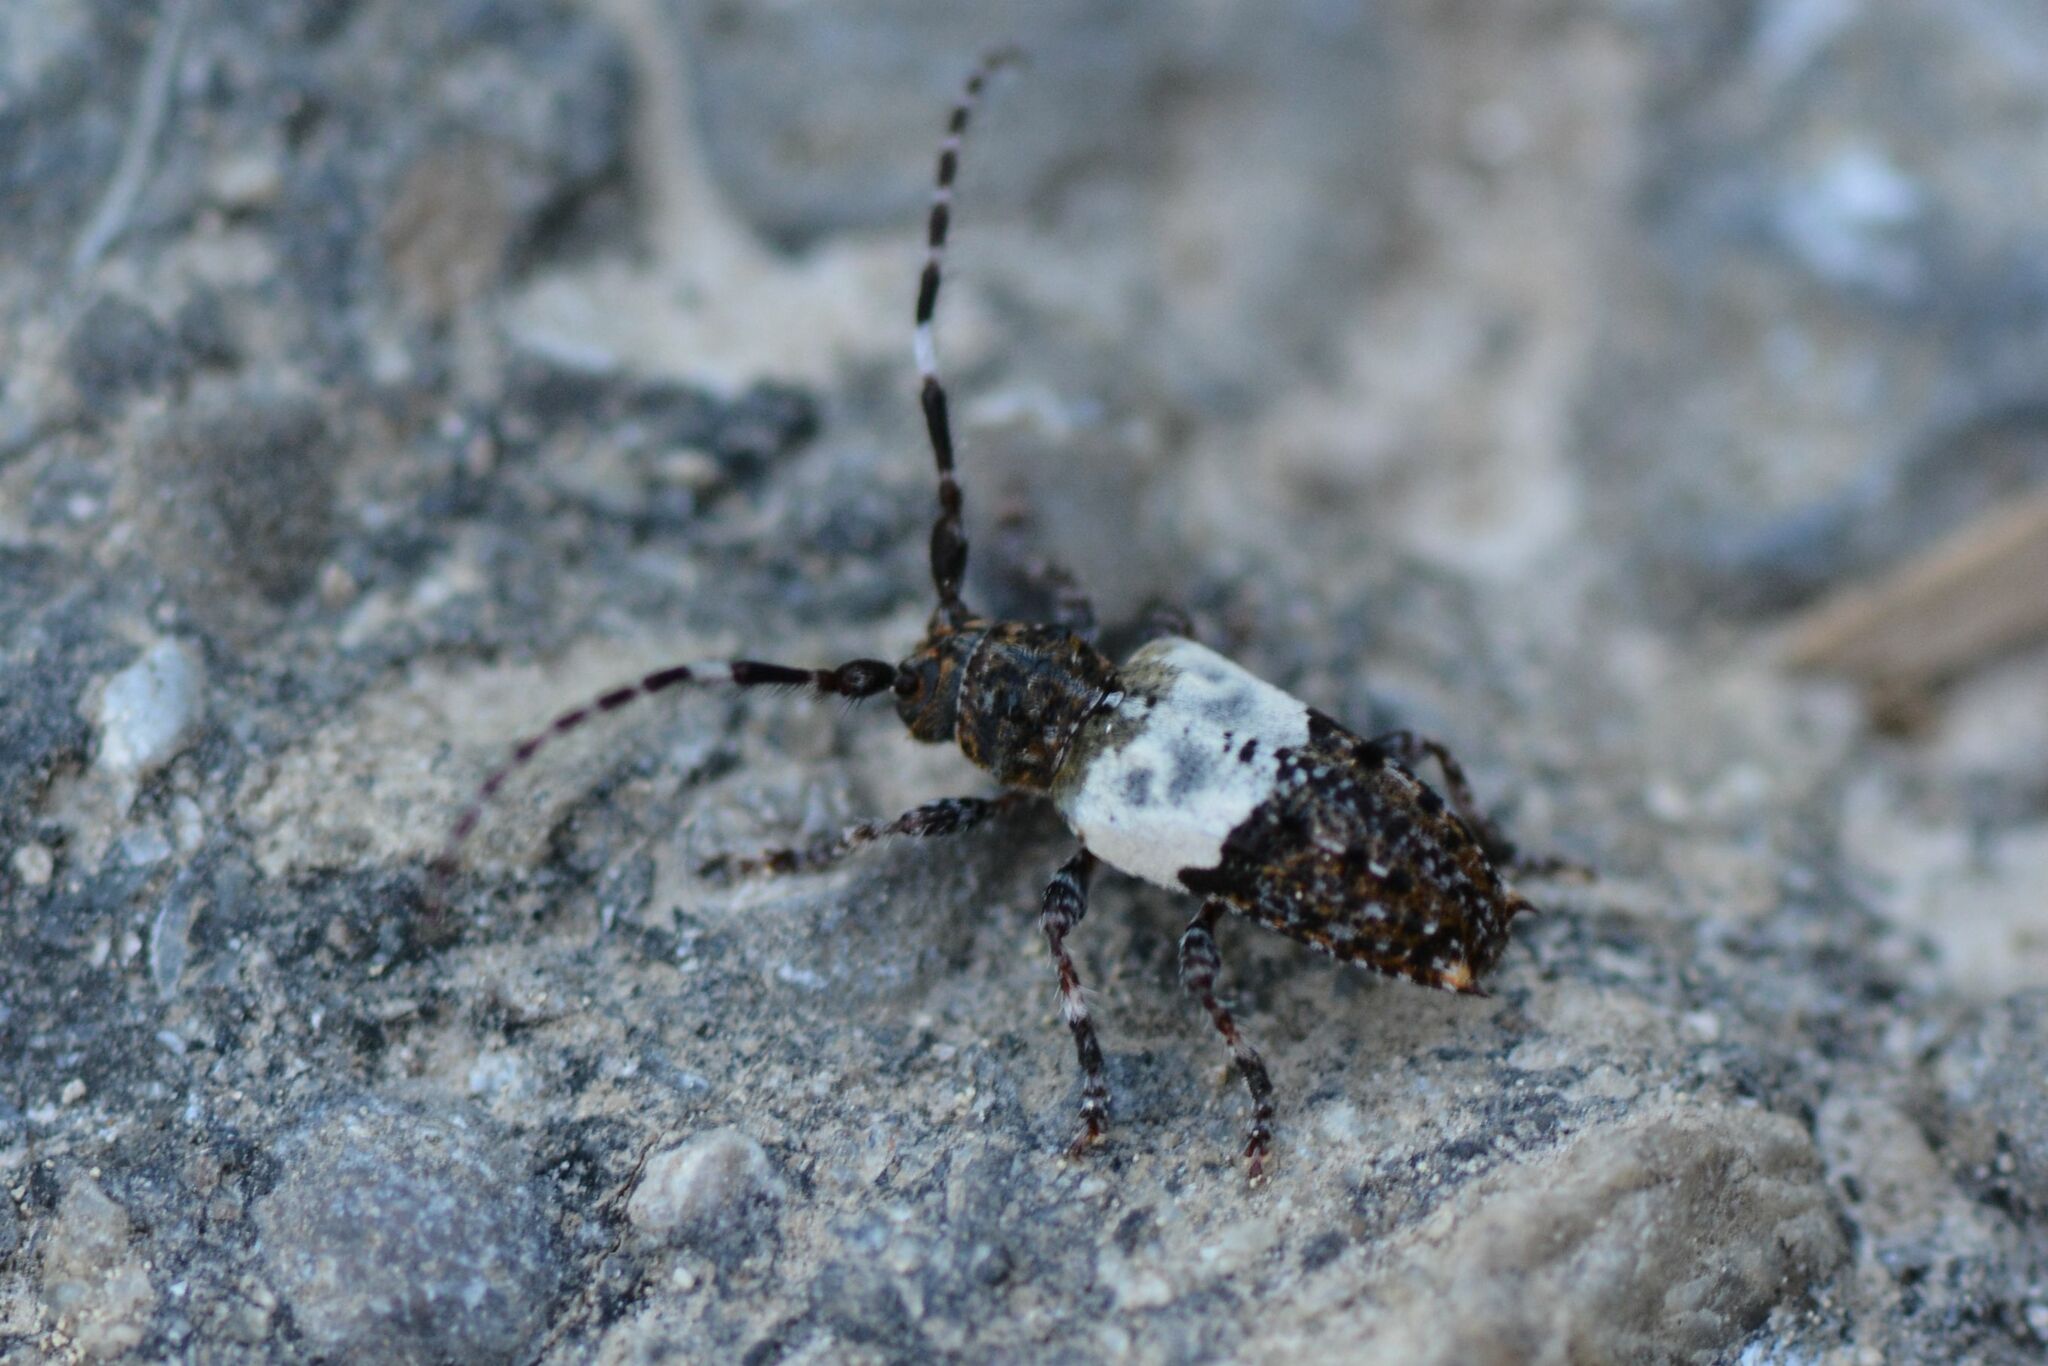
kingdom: Animalia
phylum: Arthropoda
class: Insecta
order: Coleoptera
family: Cerambycidae
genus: Pogonocherus
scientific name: Pogonocherus hispidulus
